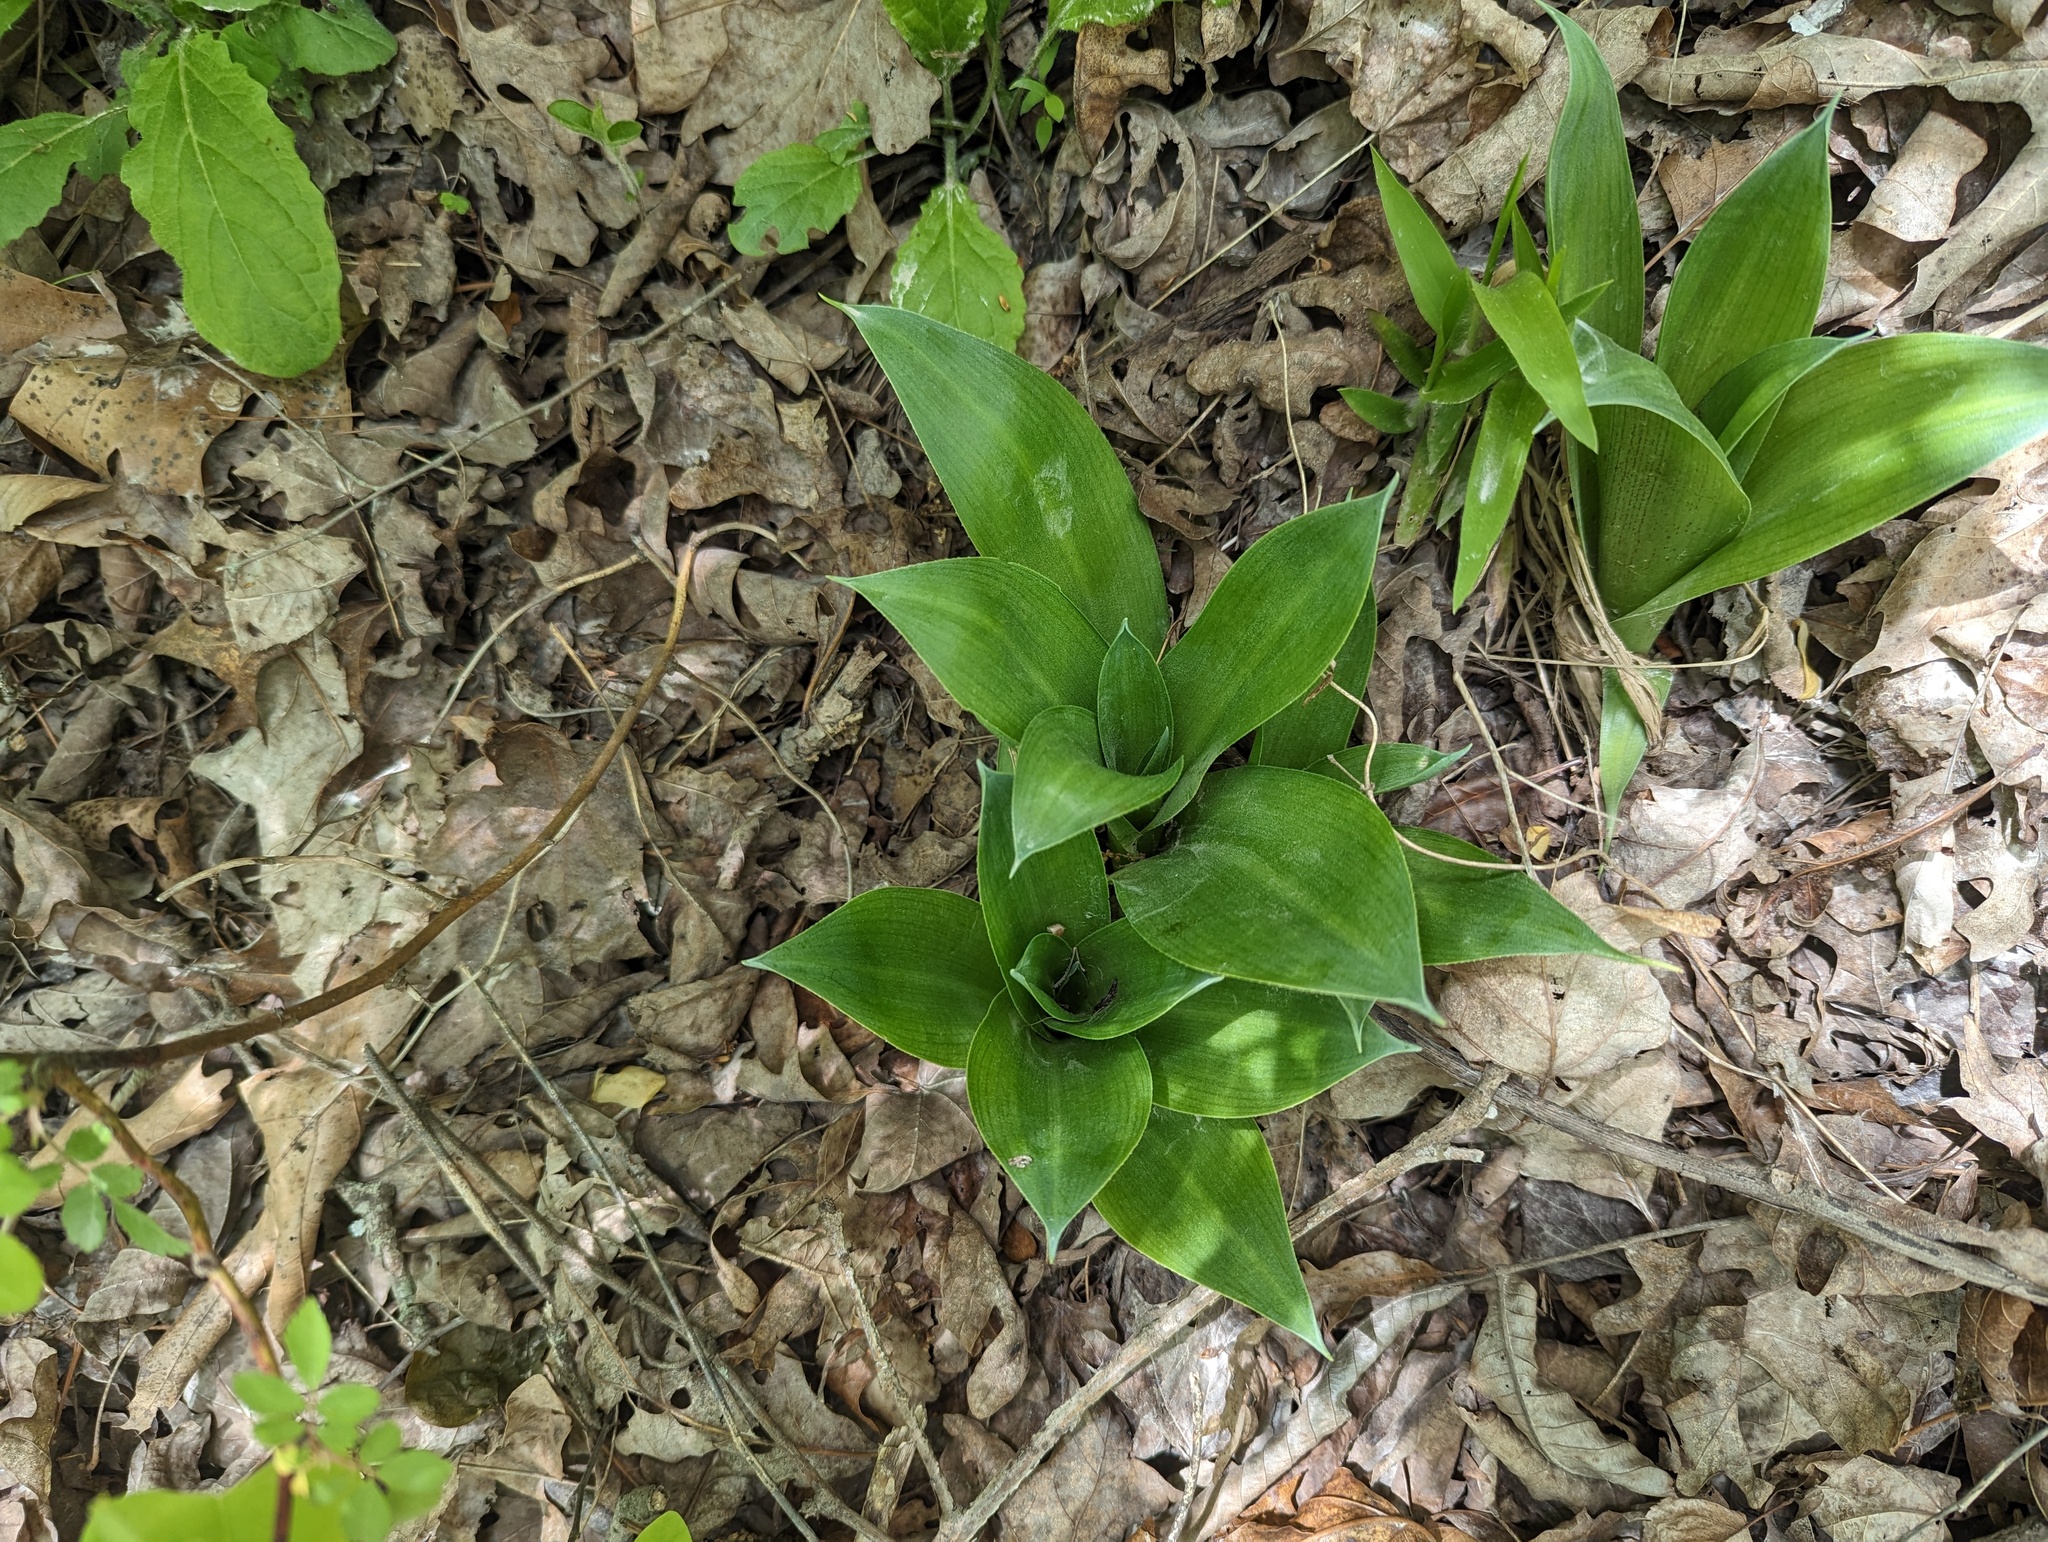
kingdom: Plantae
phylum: Tracheophyta
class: Liliopsida
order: Asparagales
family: Asparagaceae
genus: Agave
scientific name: Agave virginica
